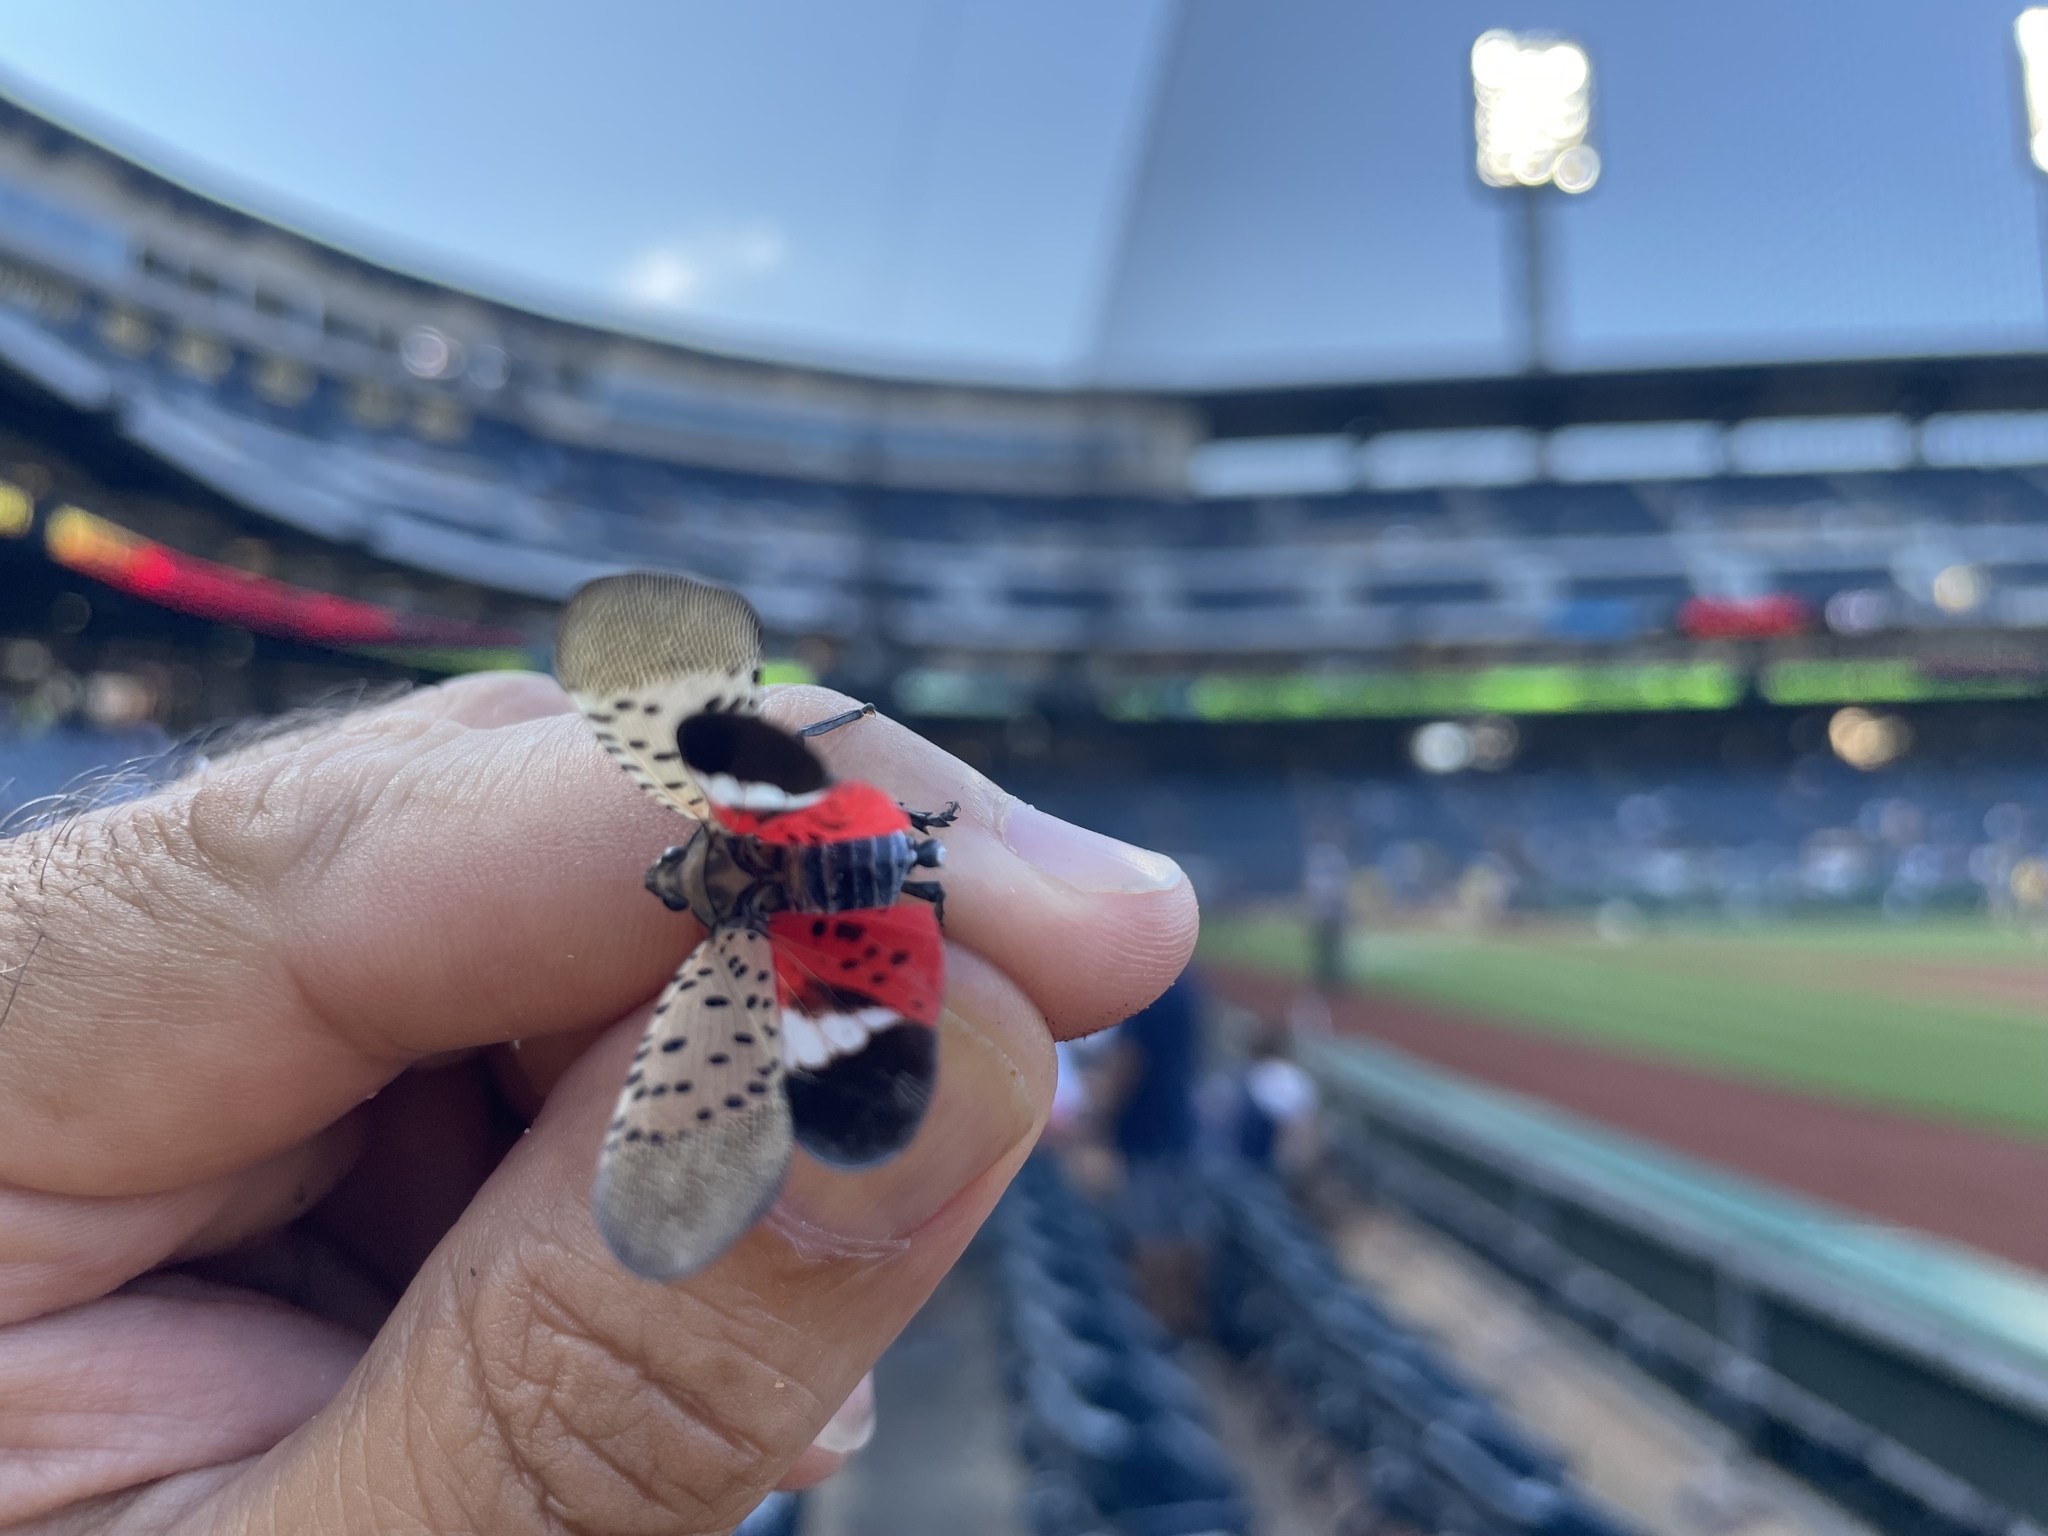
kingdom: Animalia
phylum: Arthropoda
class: Insecta
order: Hemiptera
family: Fulgoridae
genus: Lycorma
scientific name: Lycorma delicatula
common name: Spotted lanternfly
